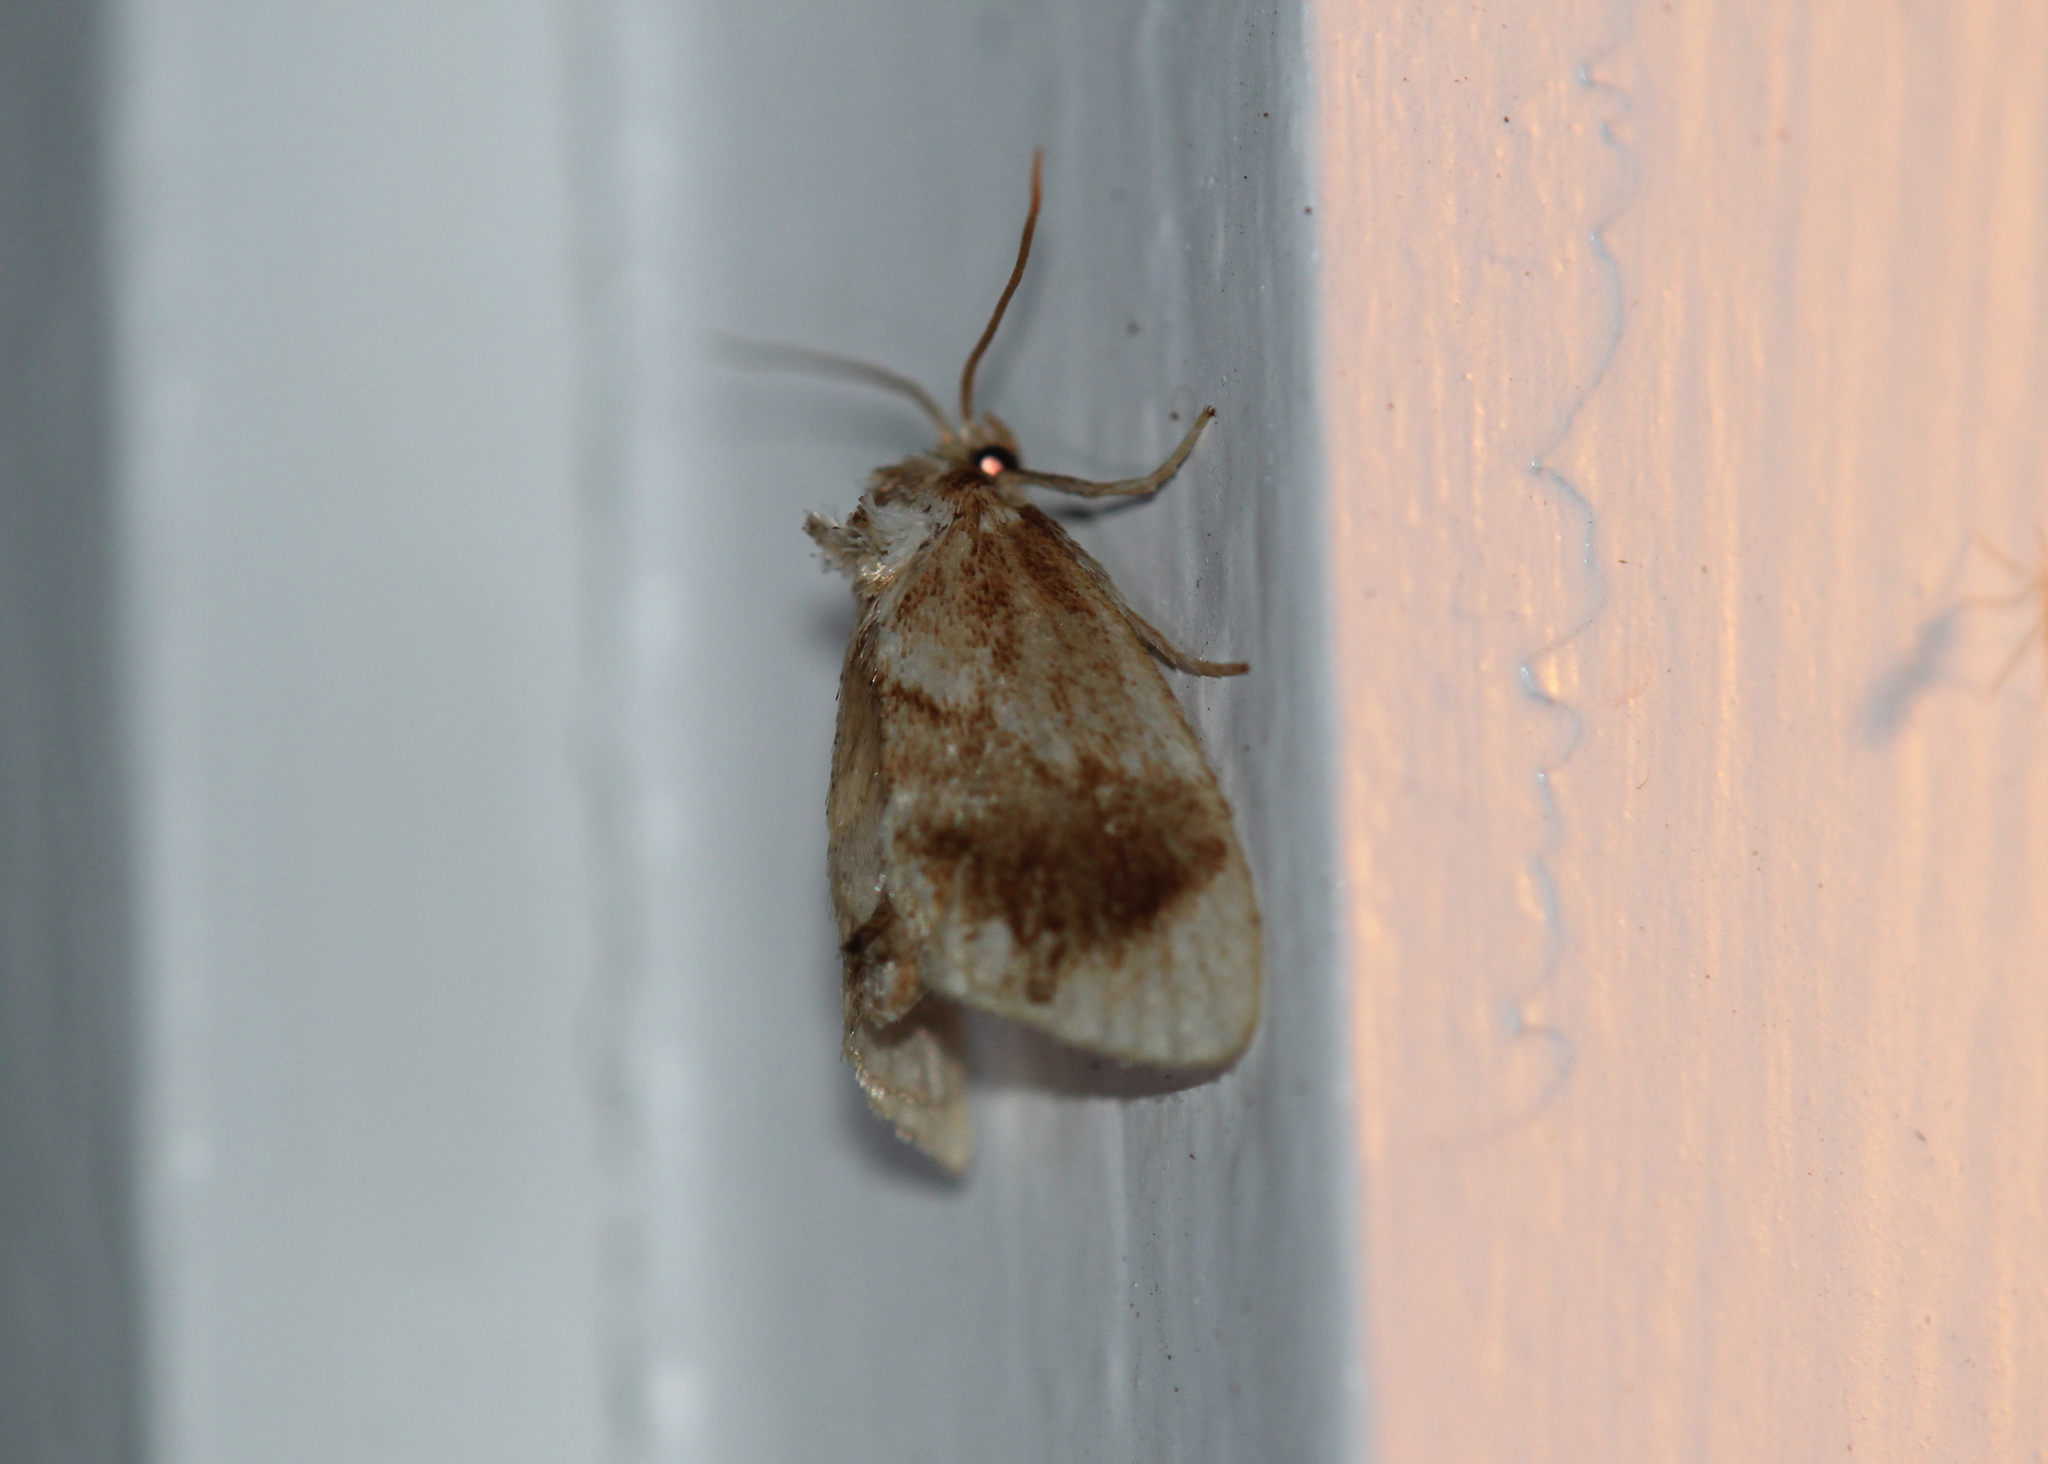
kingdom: Animalia
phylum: Arthropoda
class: Insecta
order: Lepidoptera
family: Limacodidae
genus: Packardia
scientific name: Packardia geminata
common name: Jeweled tailed slug moth
